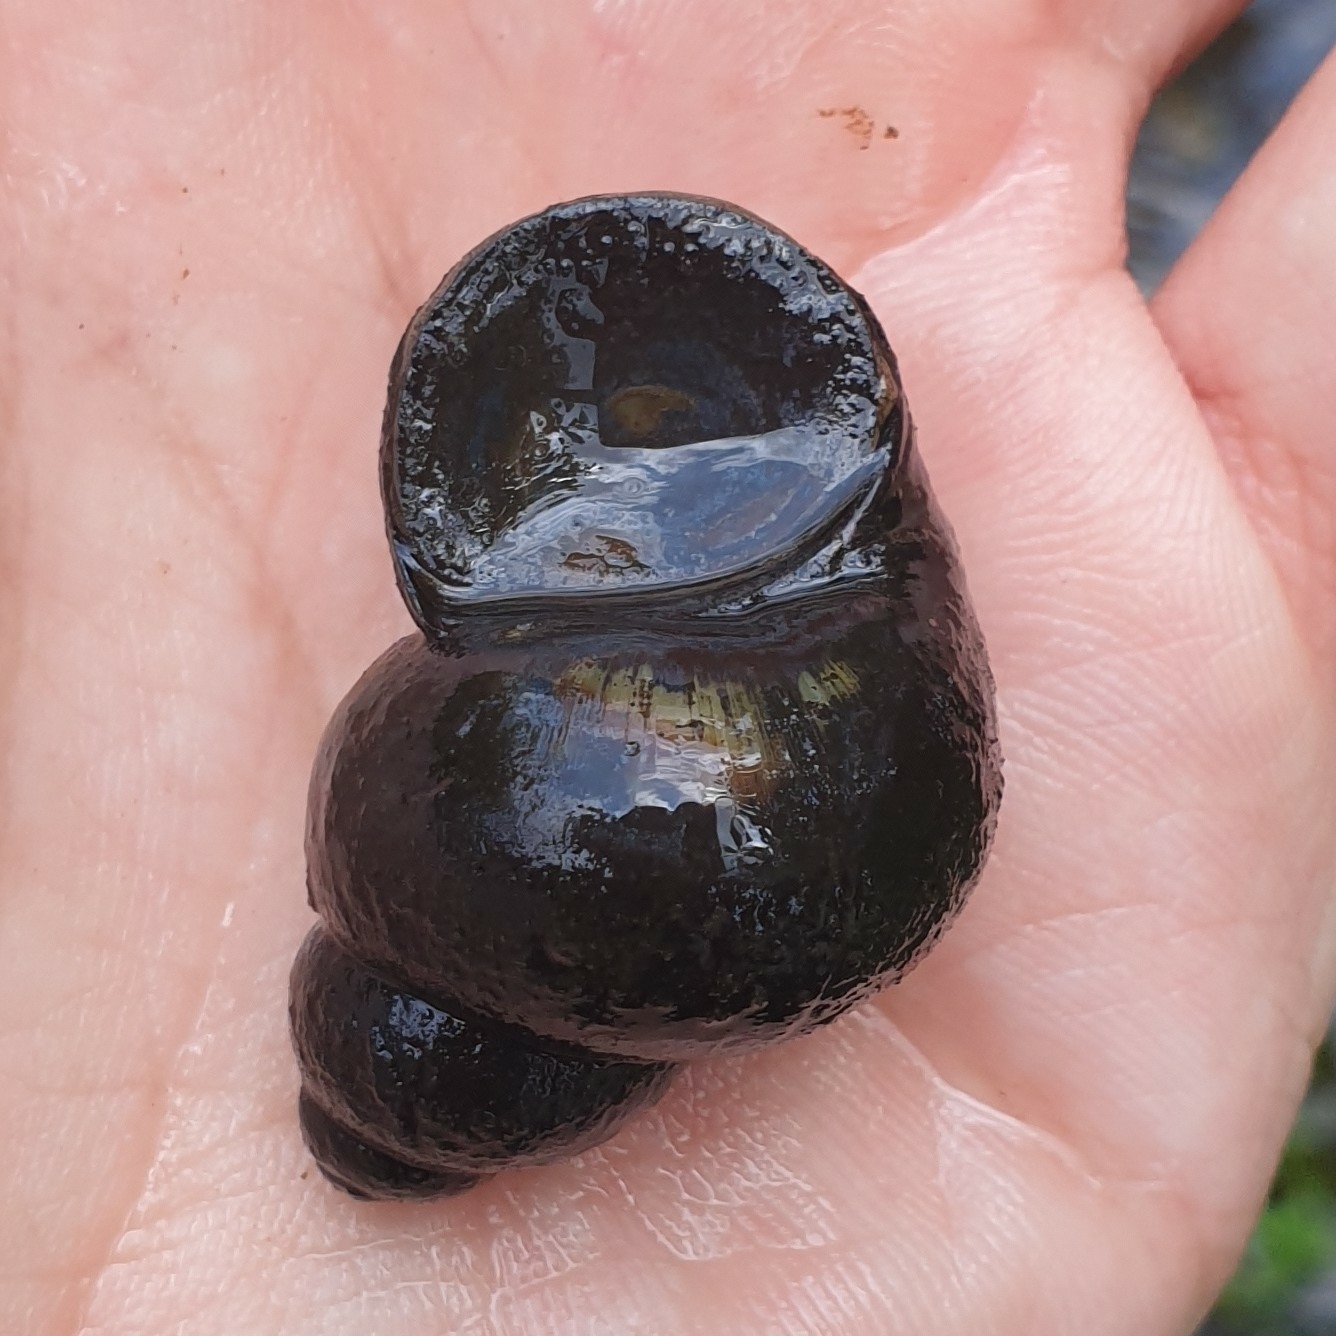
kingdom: Animalia
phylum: Mollusca
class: Gastropoda
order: Architaenioglossa
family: Viviparidae
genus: Viviparus
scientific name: Viviparus viviparus
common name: River snail
